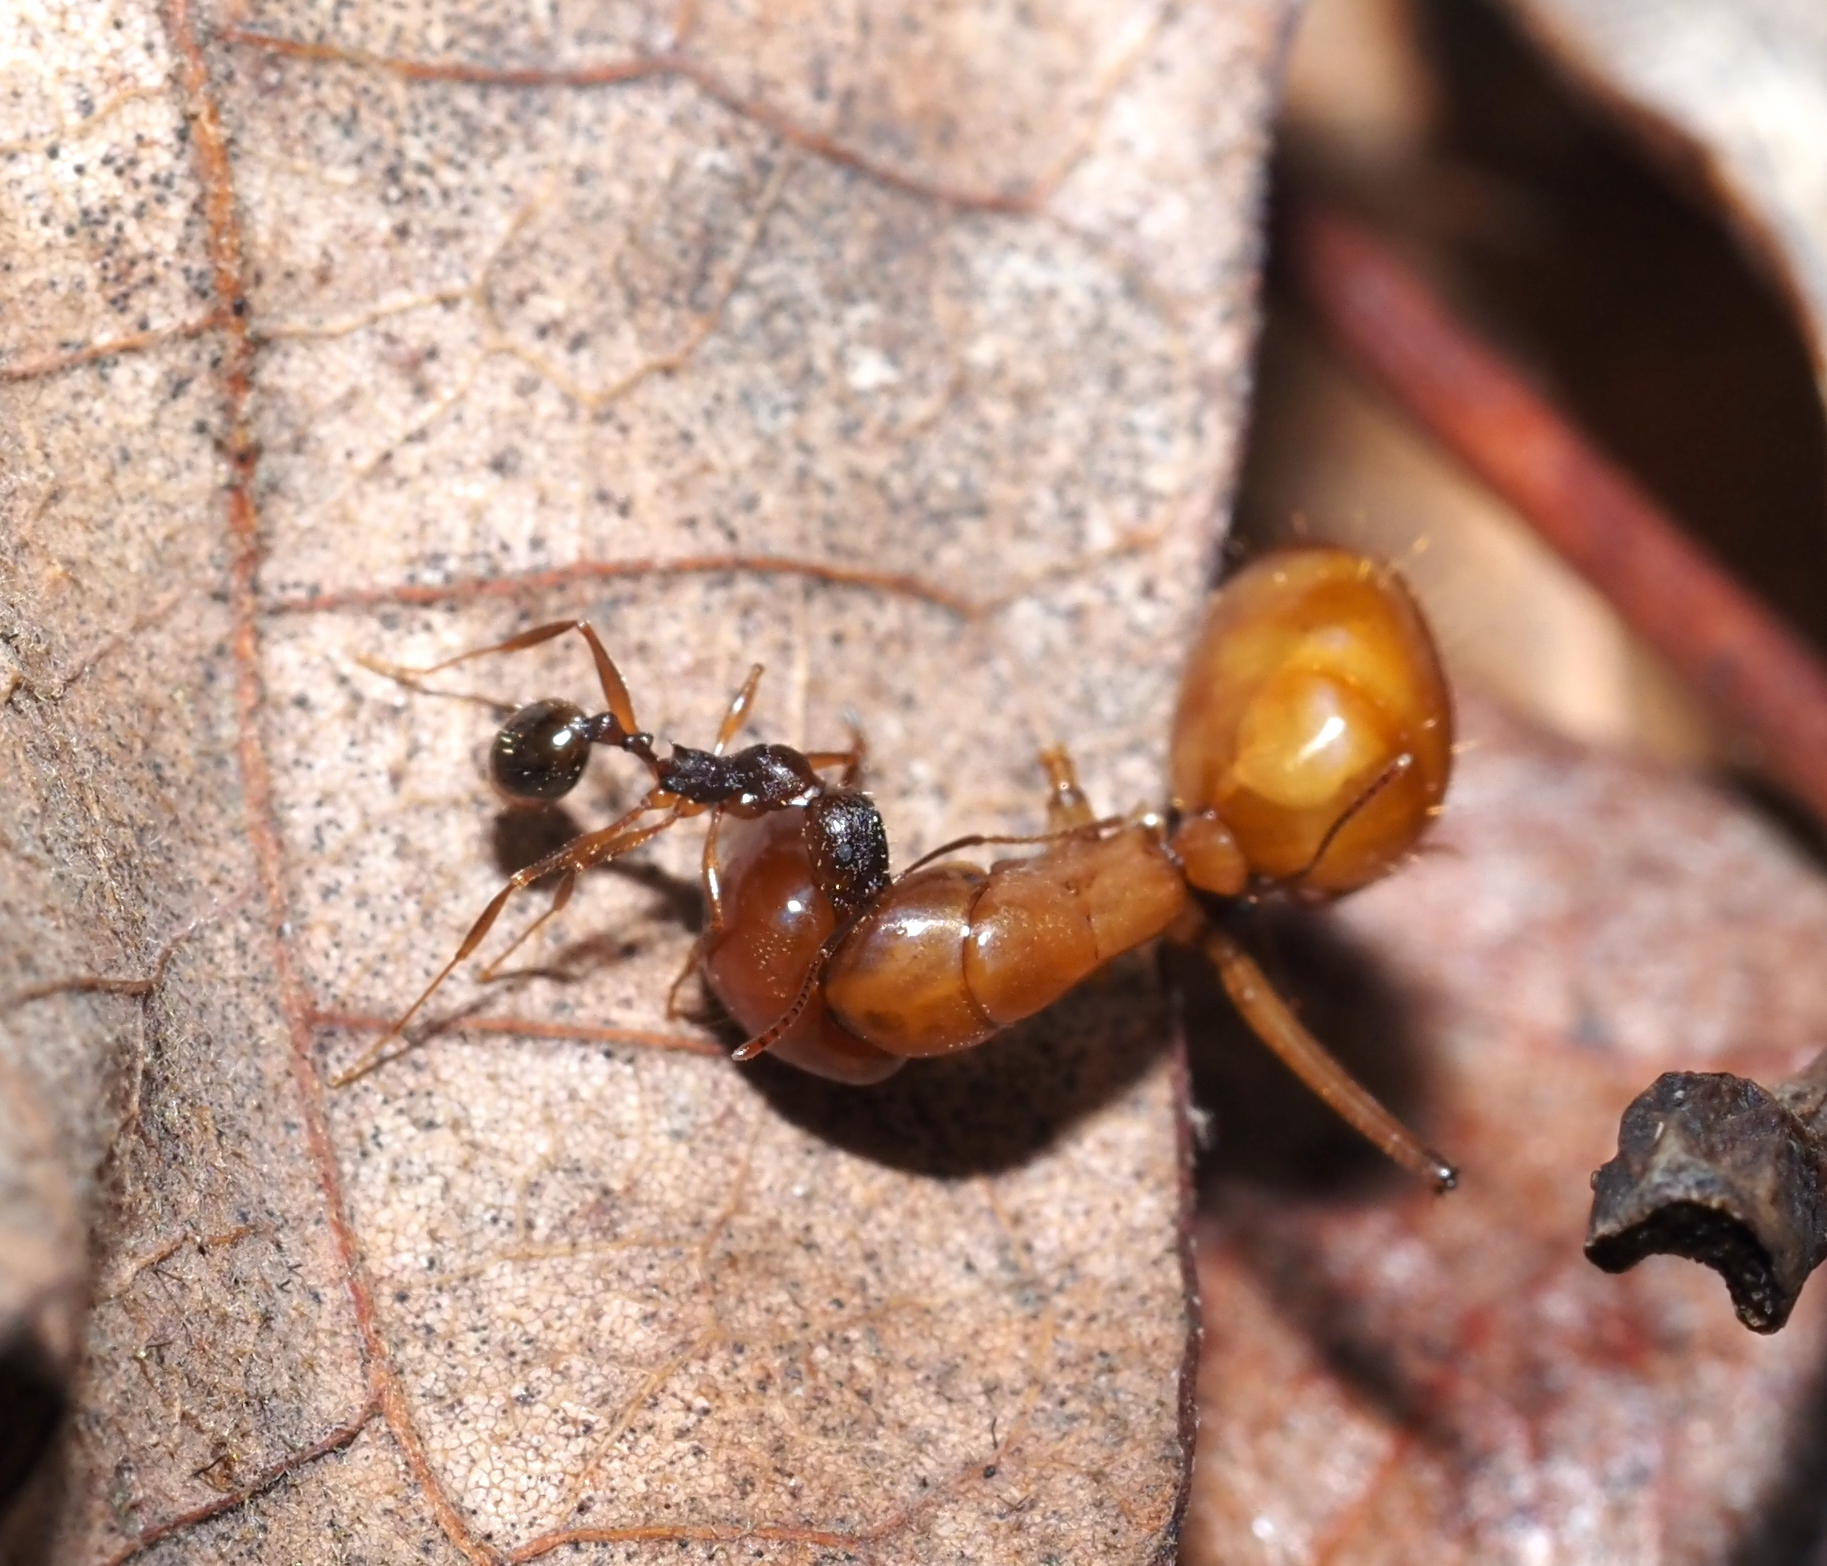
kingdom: Animalia
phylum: Arthropoda
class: Insecta
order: Hymenoptera
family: Formicidae
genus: Camponotus
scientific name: Camponotus castaneus
